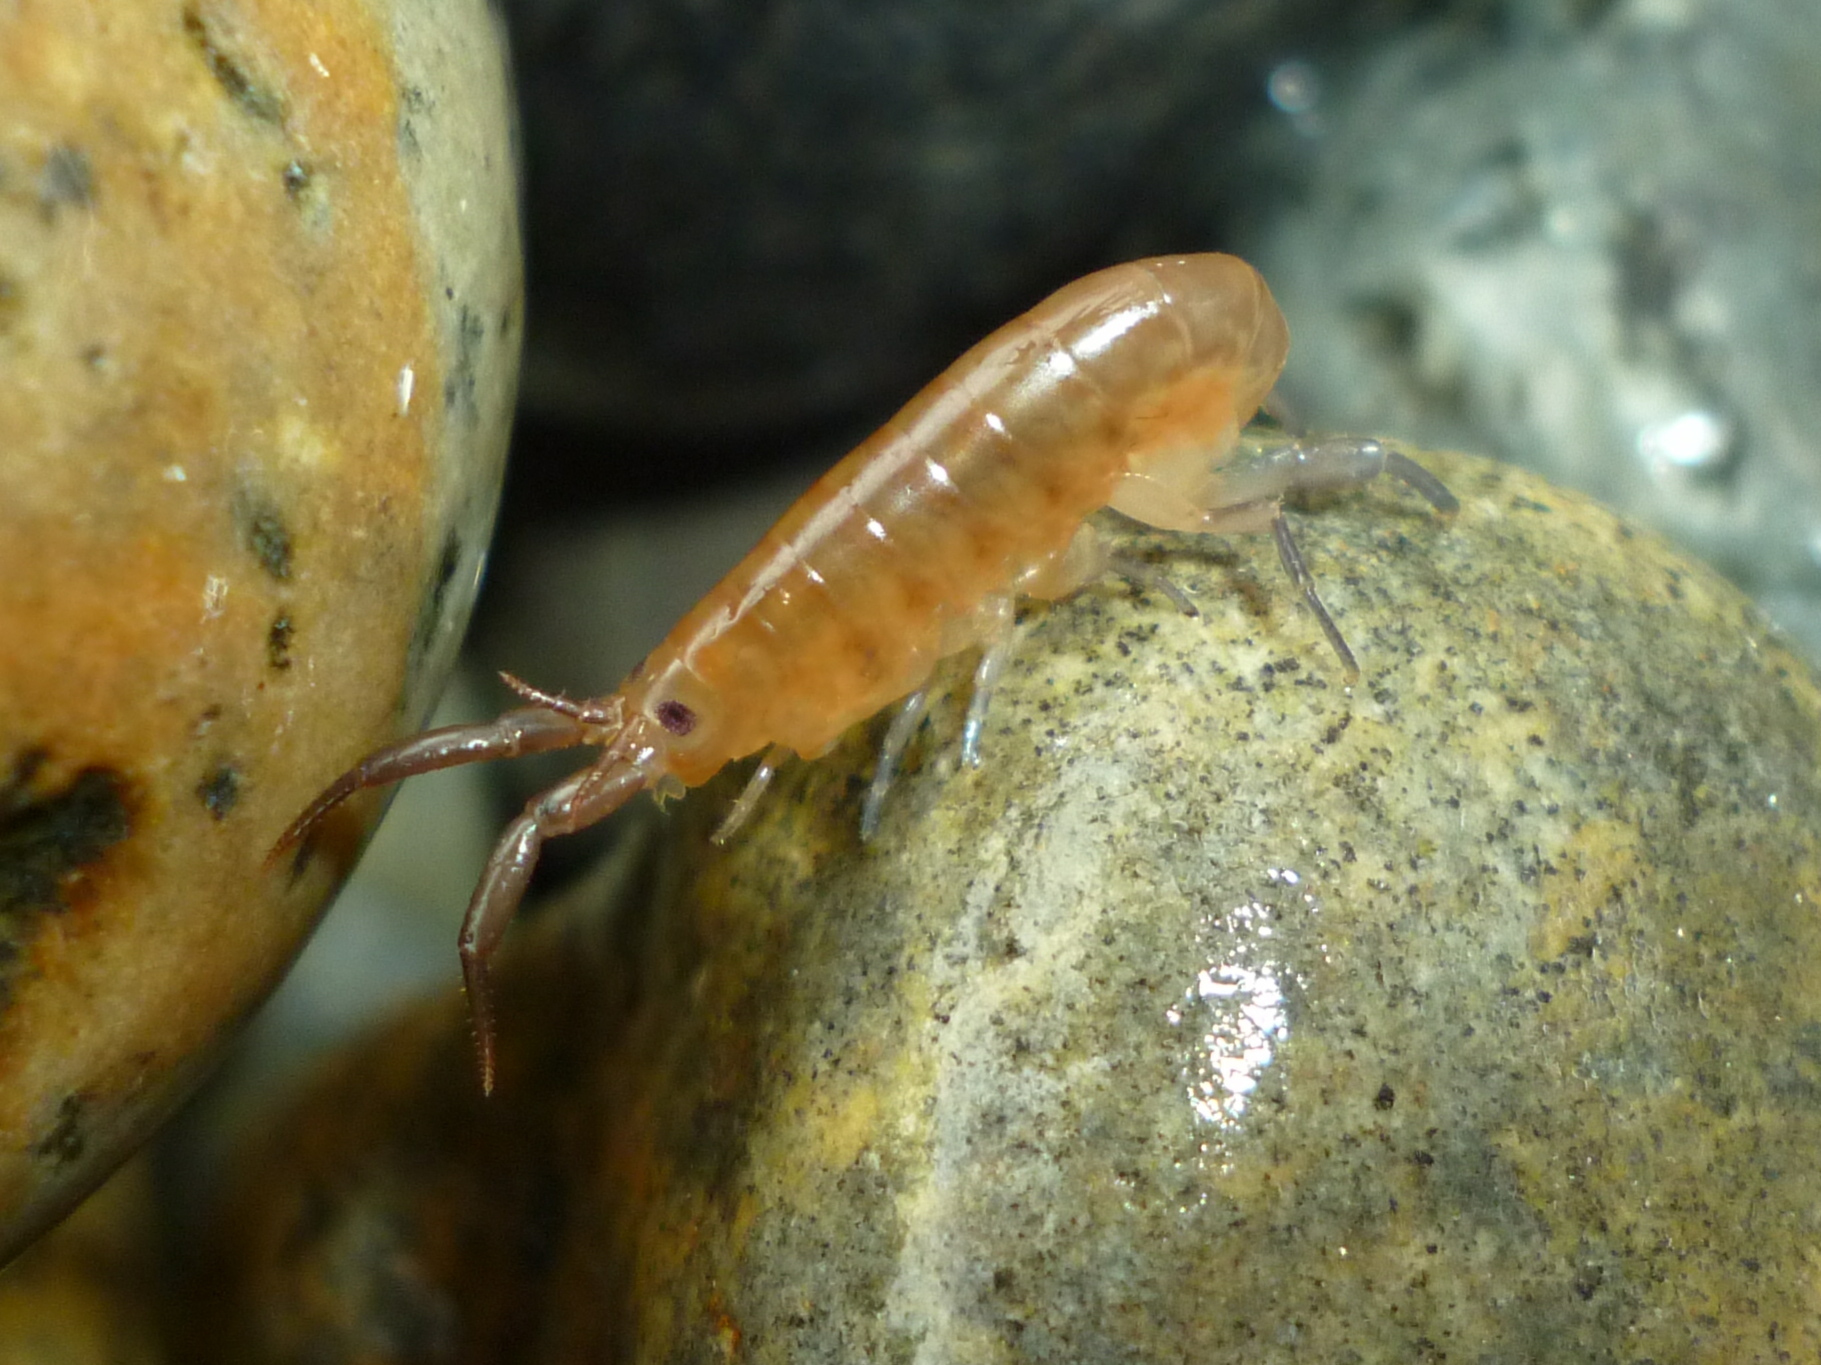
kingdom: Animalia
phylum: Arthropoda
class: Malacostraca
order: Amphipoda
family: Talitridae
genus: Platorchestia
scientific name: Platorchestia platensis
